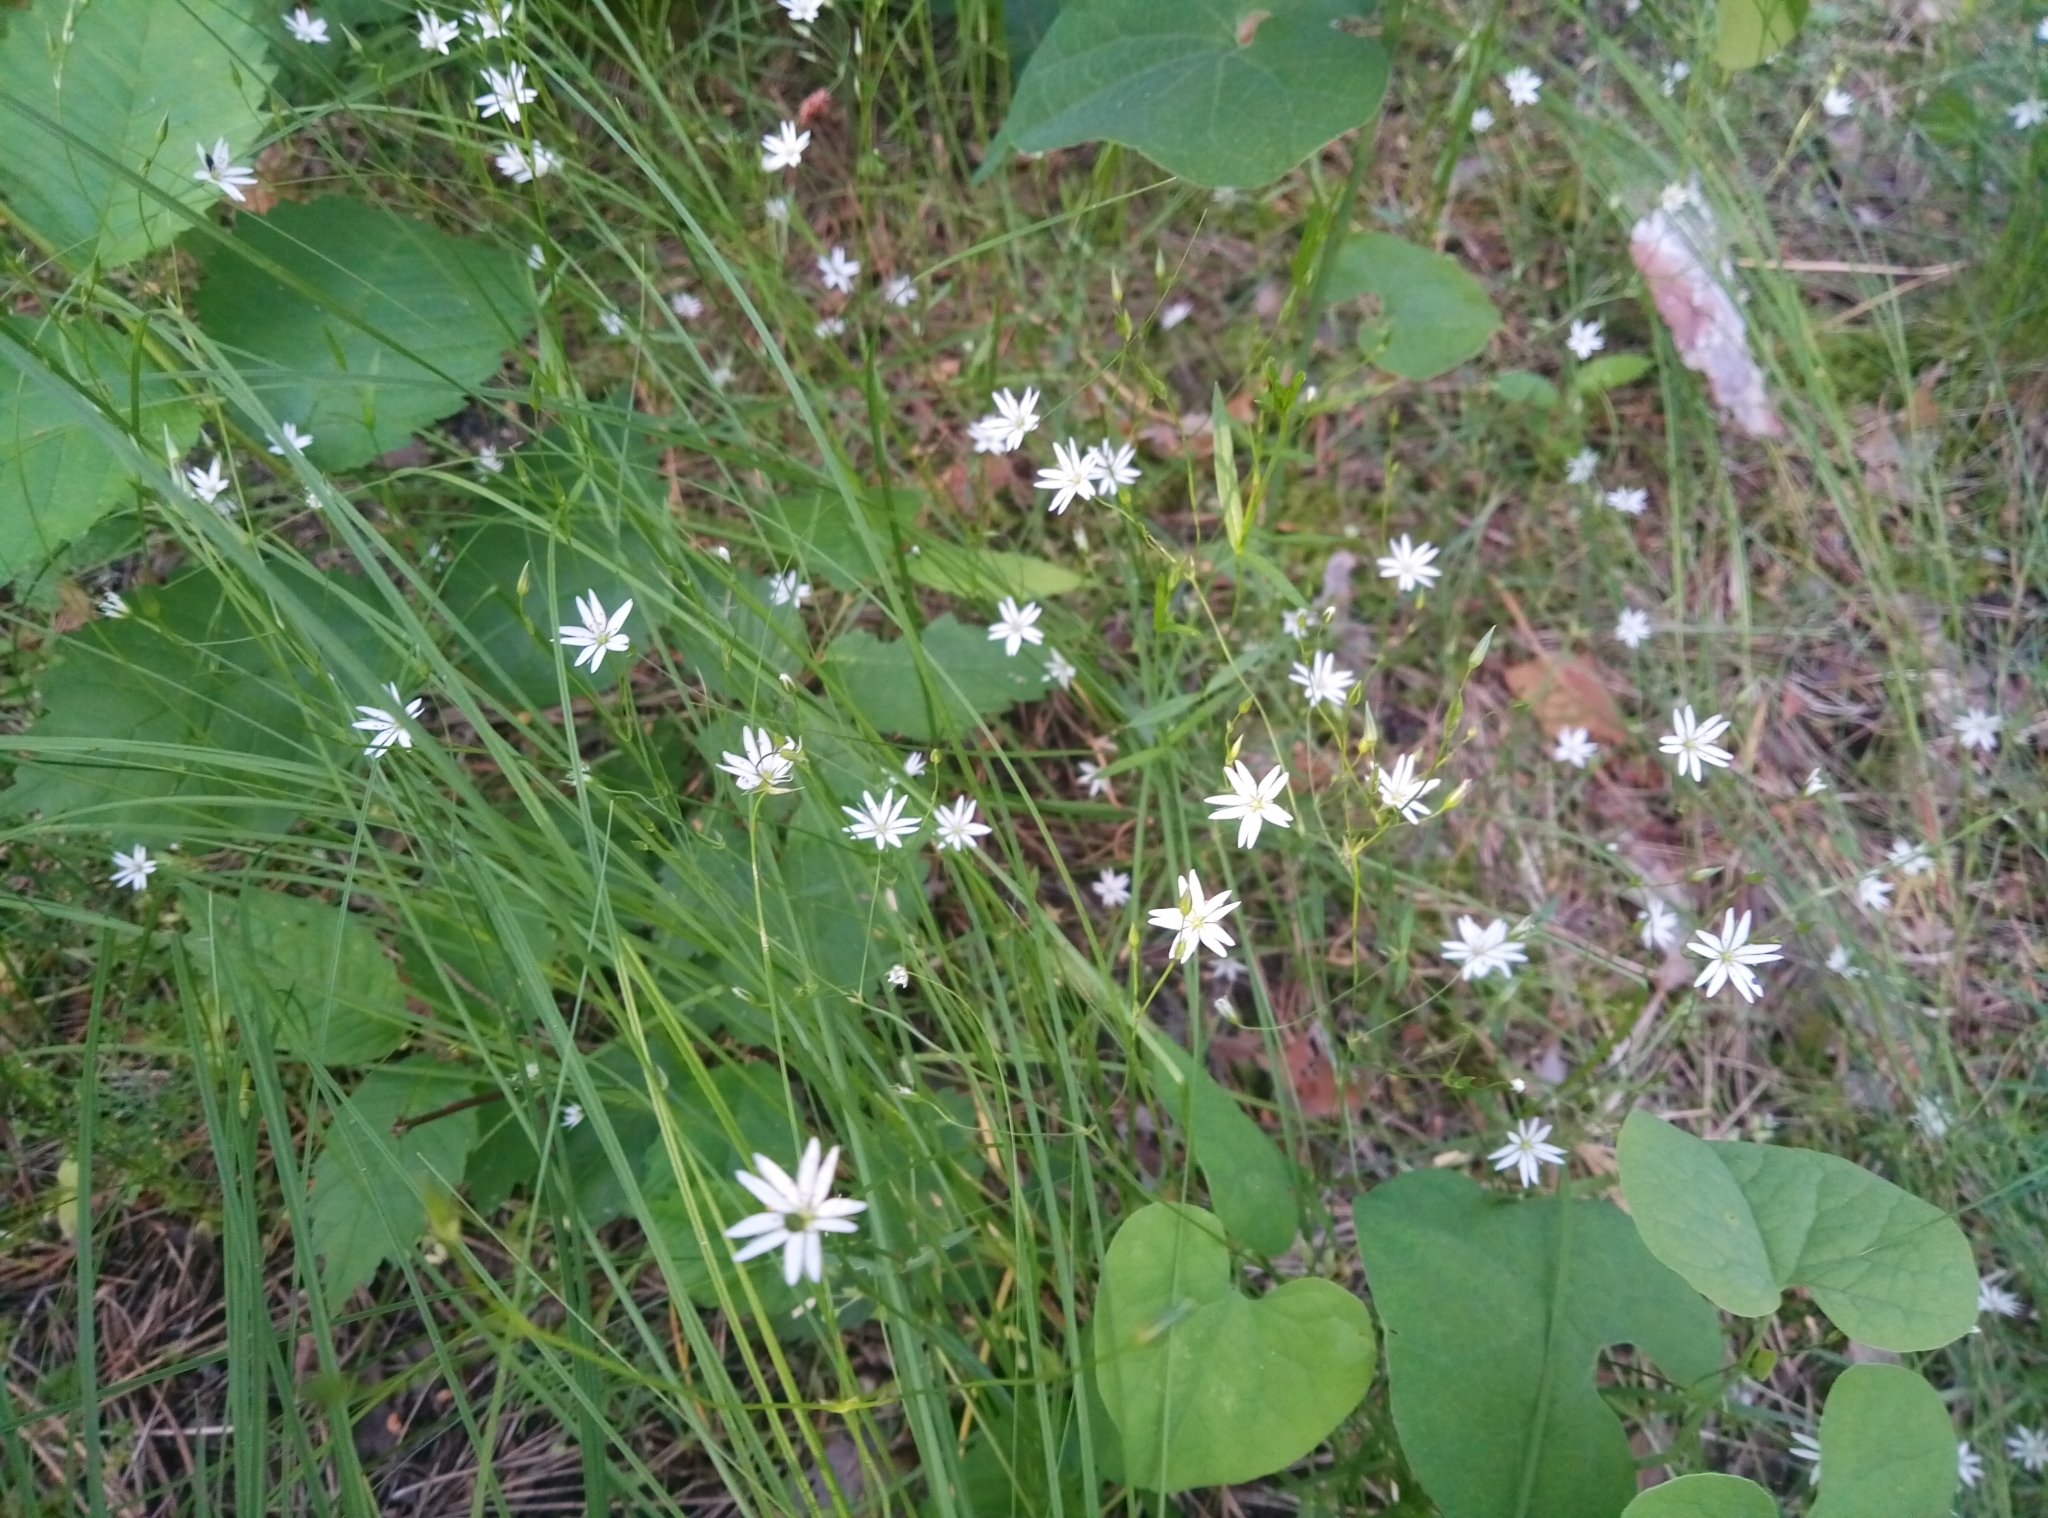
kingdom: Plantae
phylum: Tracheophyta
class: Magnoliopsida
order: Caryophyllales
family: Caryophyllaceae
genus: Stellaria
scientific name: Stellaria graminea
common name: Grass-like starwort
